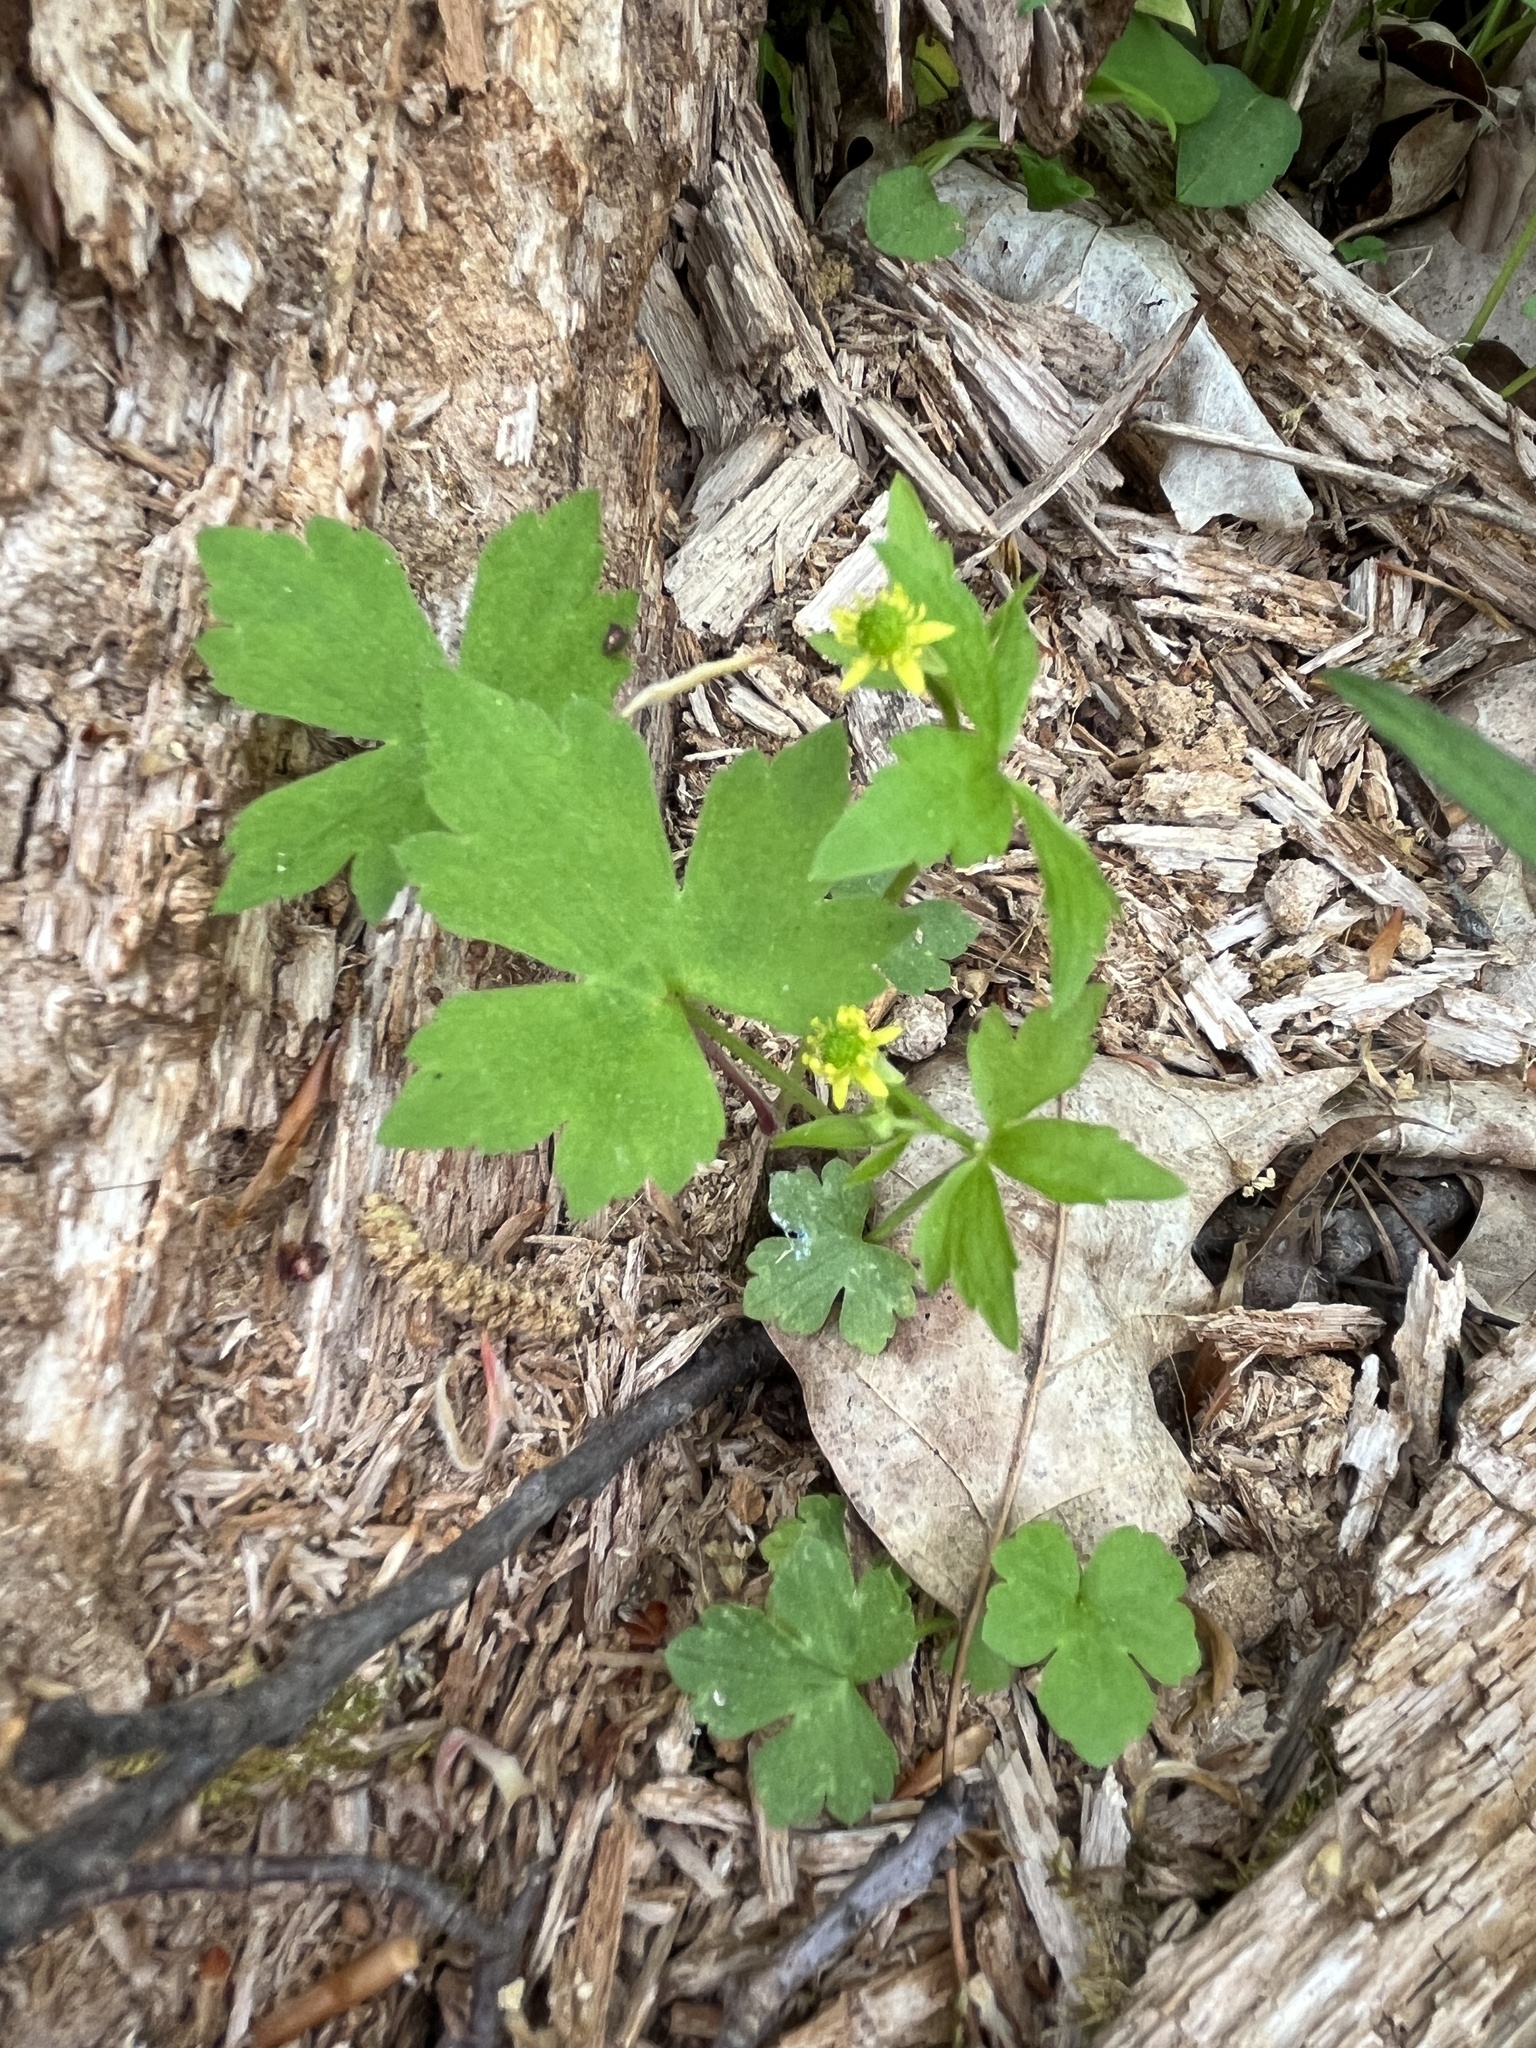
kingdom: Plantae
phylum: Tracheophyta
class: Magnoliopsida
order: Ranunculales
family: Ranunculaceae
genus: Ranunculus
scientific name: Ranunculus recurvatus
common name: Blisterwort
